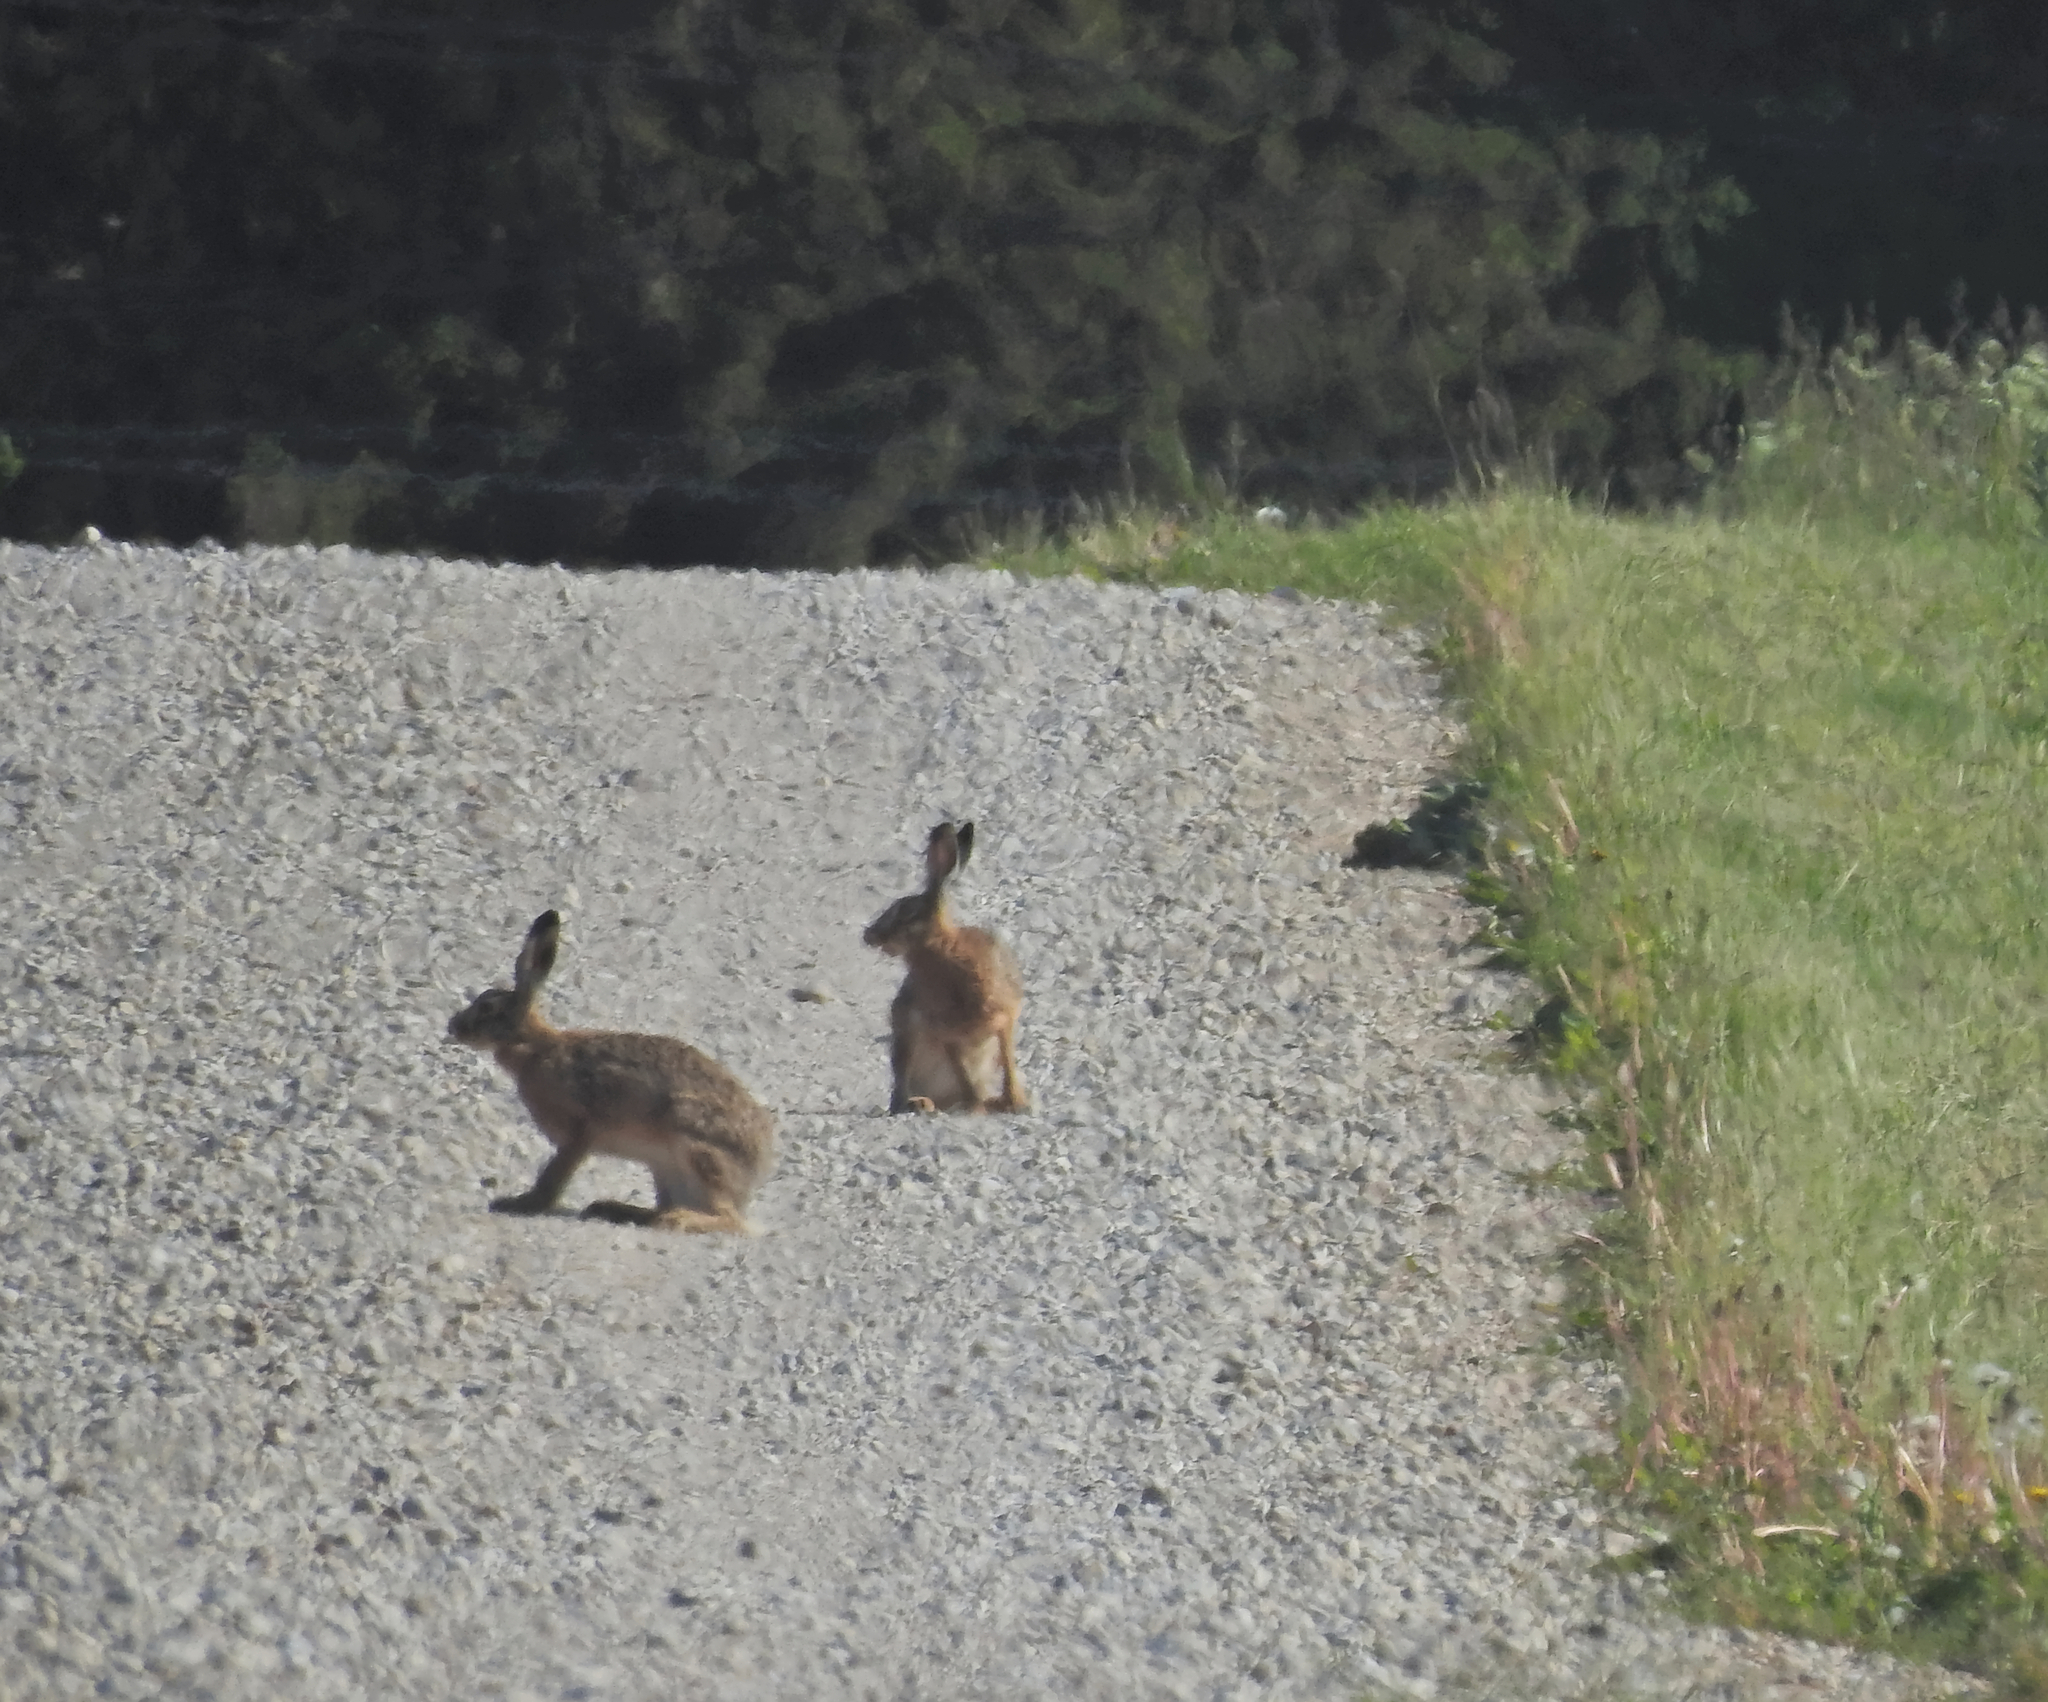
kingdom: Animalia
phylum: Chordata
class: Mammalia
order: Lagomorpha
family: Leporidae
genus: Lepus
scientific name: Lepus europaeus
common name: European hare
